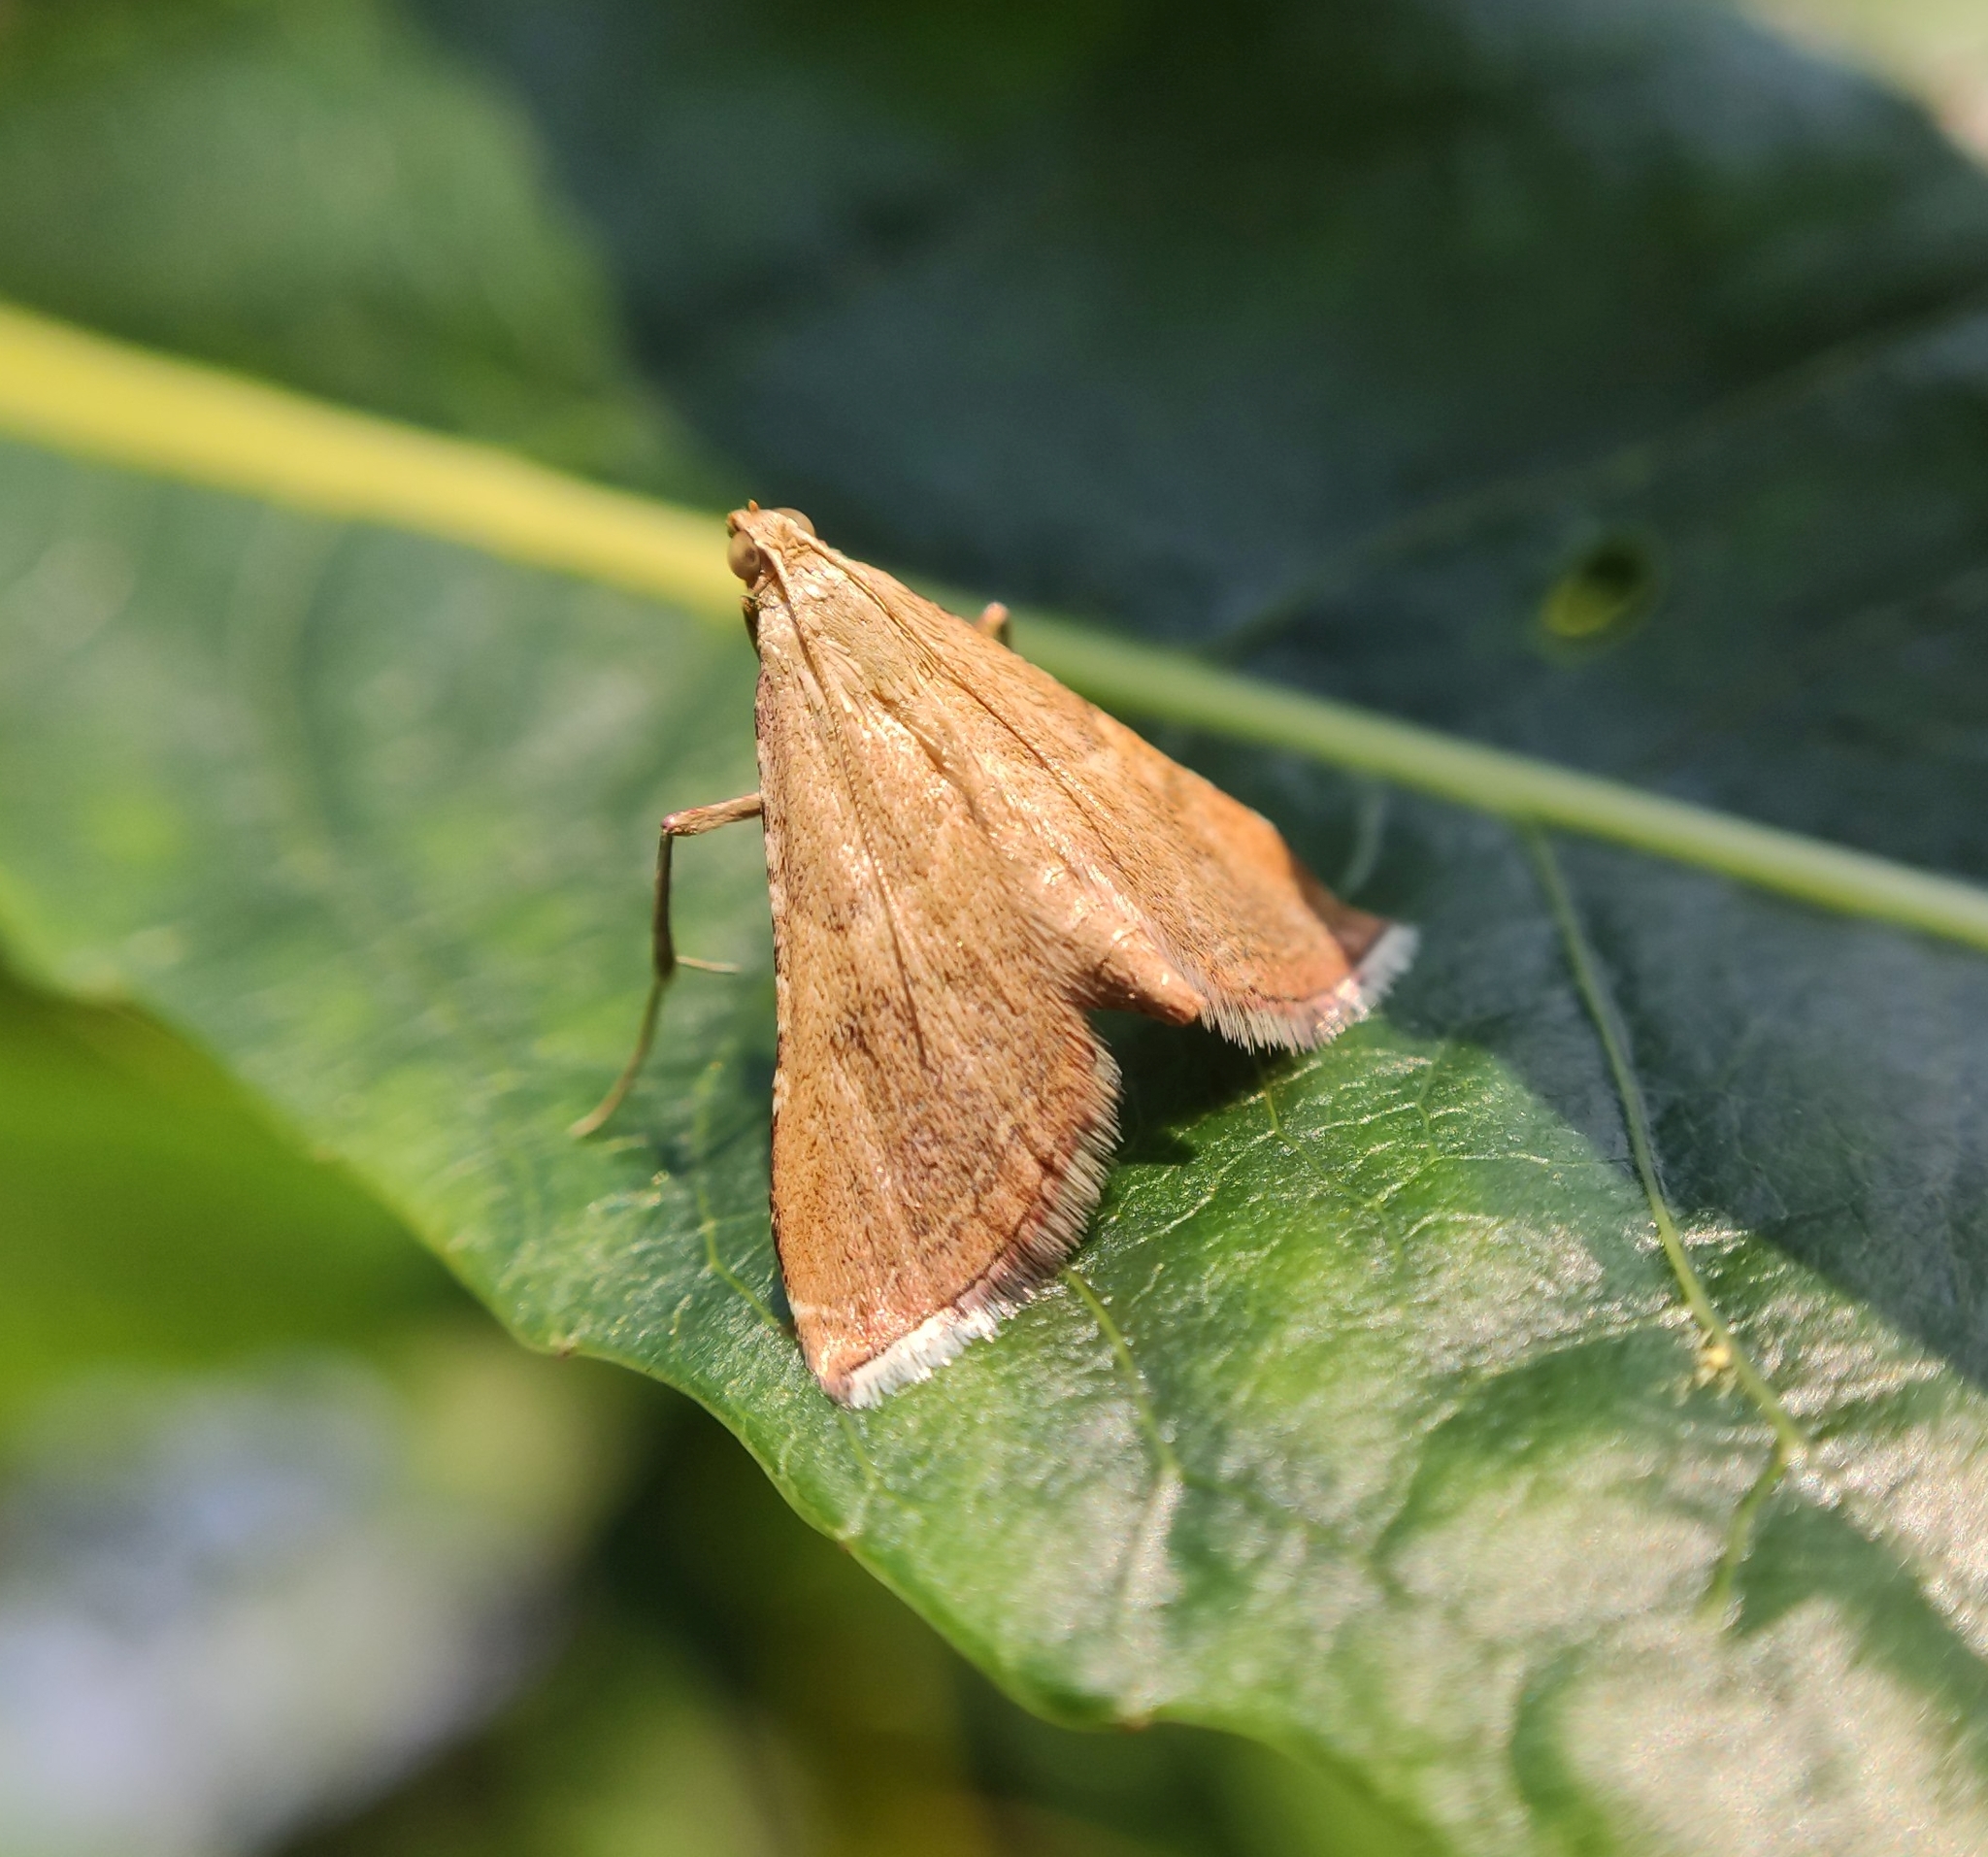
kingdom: Animalia
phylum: Arthropoda
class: Insecta
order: Lepidoptera
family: Pyralidae
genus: Endotricha
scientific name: Endotricha flammealis
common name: Rosy tabby
